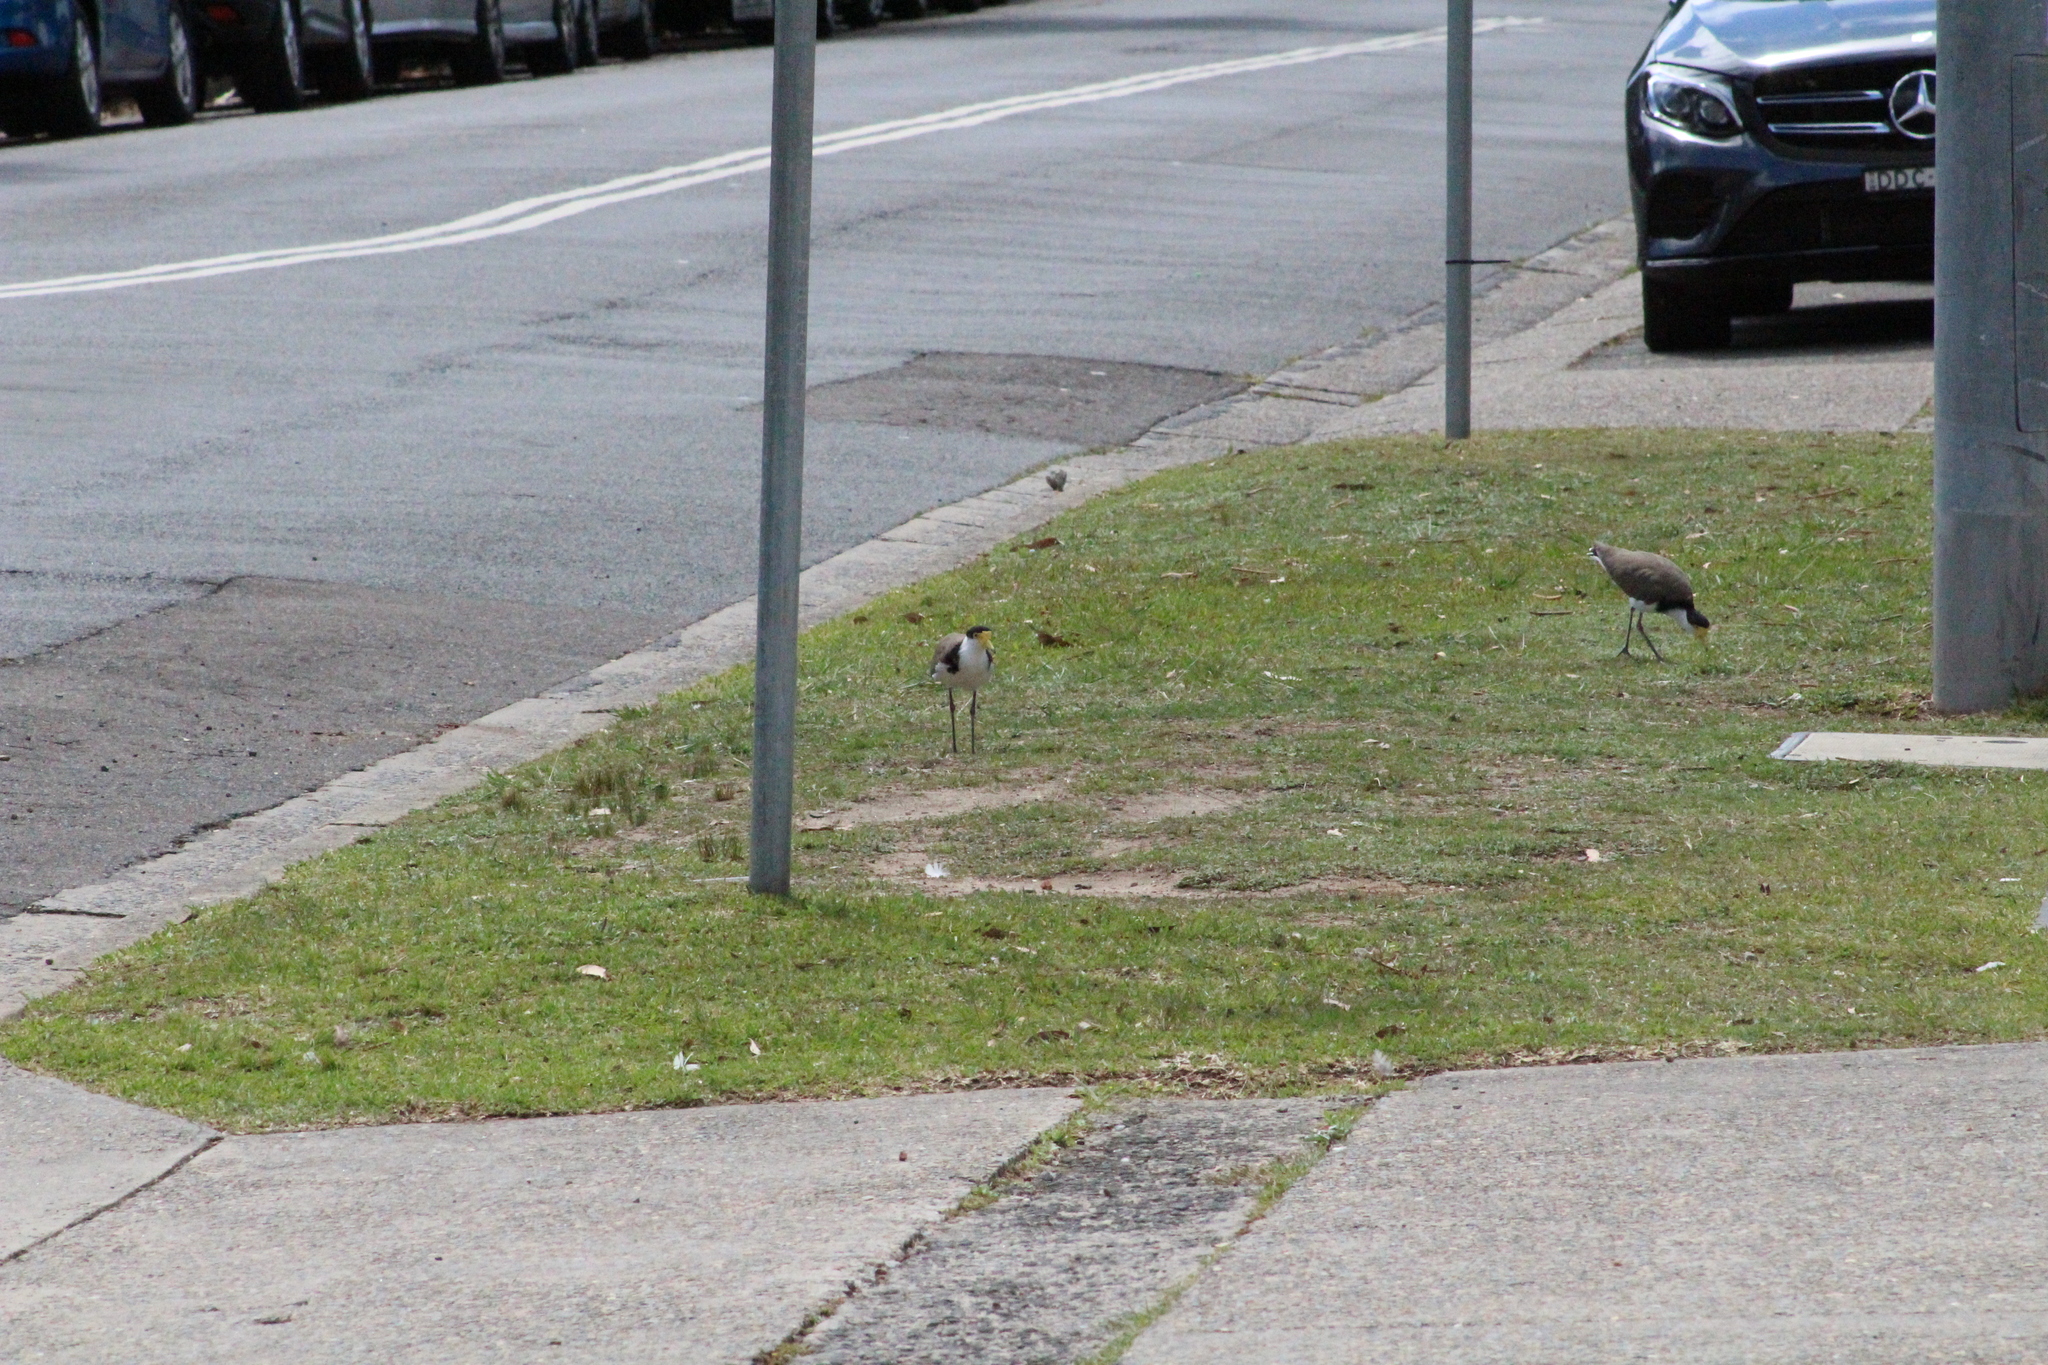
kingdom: Animalia
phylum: Chordata
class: Aves
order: Charadriiformes
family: Charadriidae
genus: Vanellus
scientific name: Vanellus miles
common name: Masked lapwing
